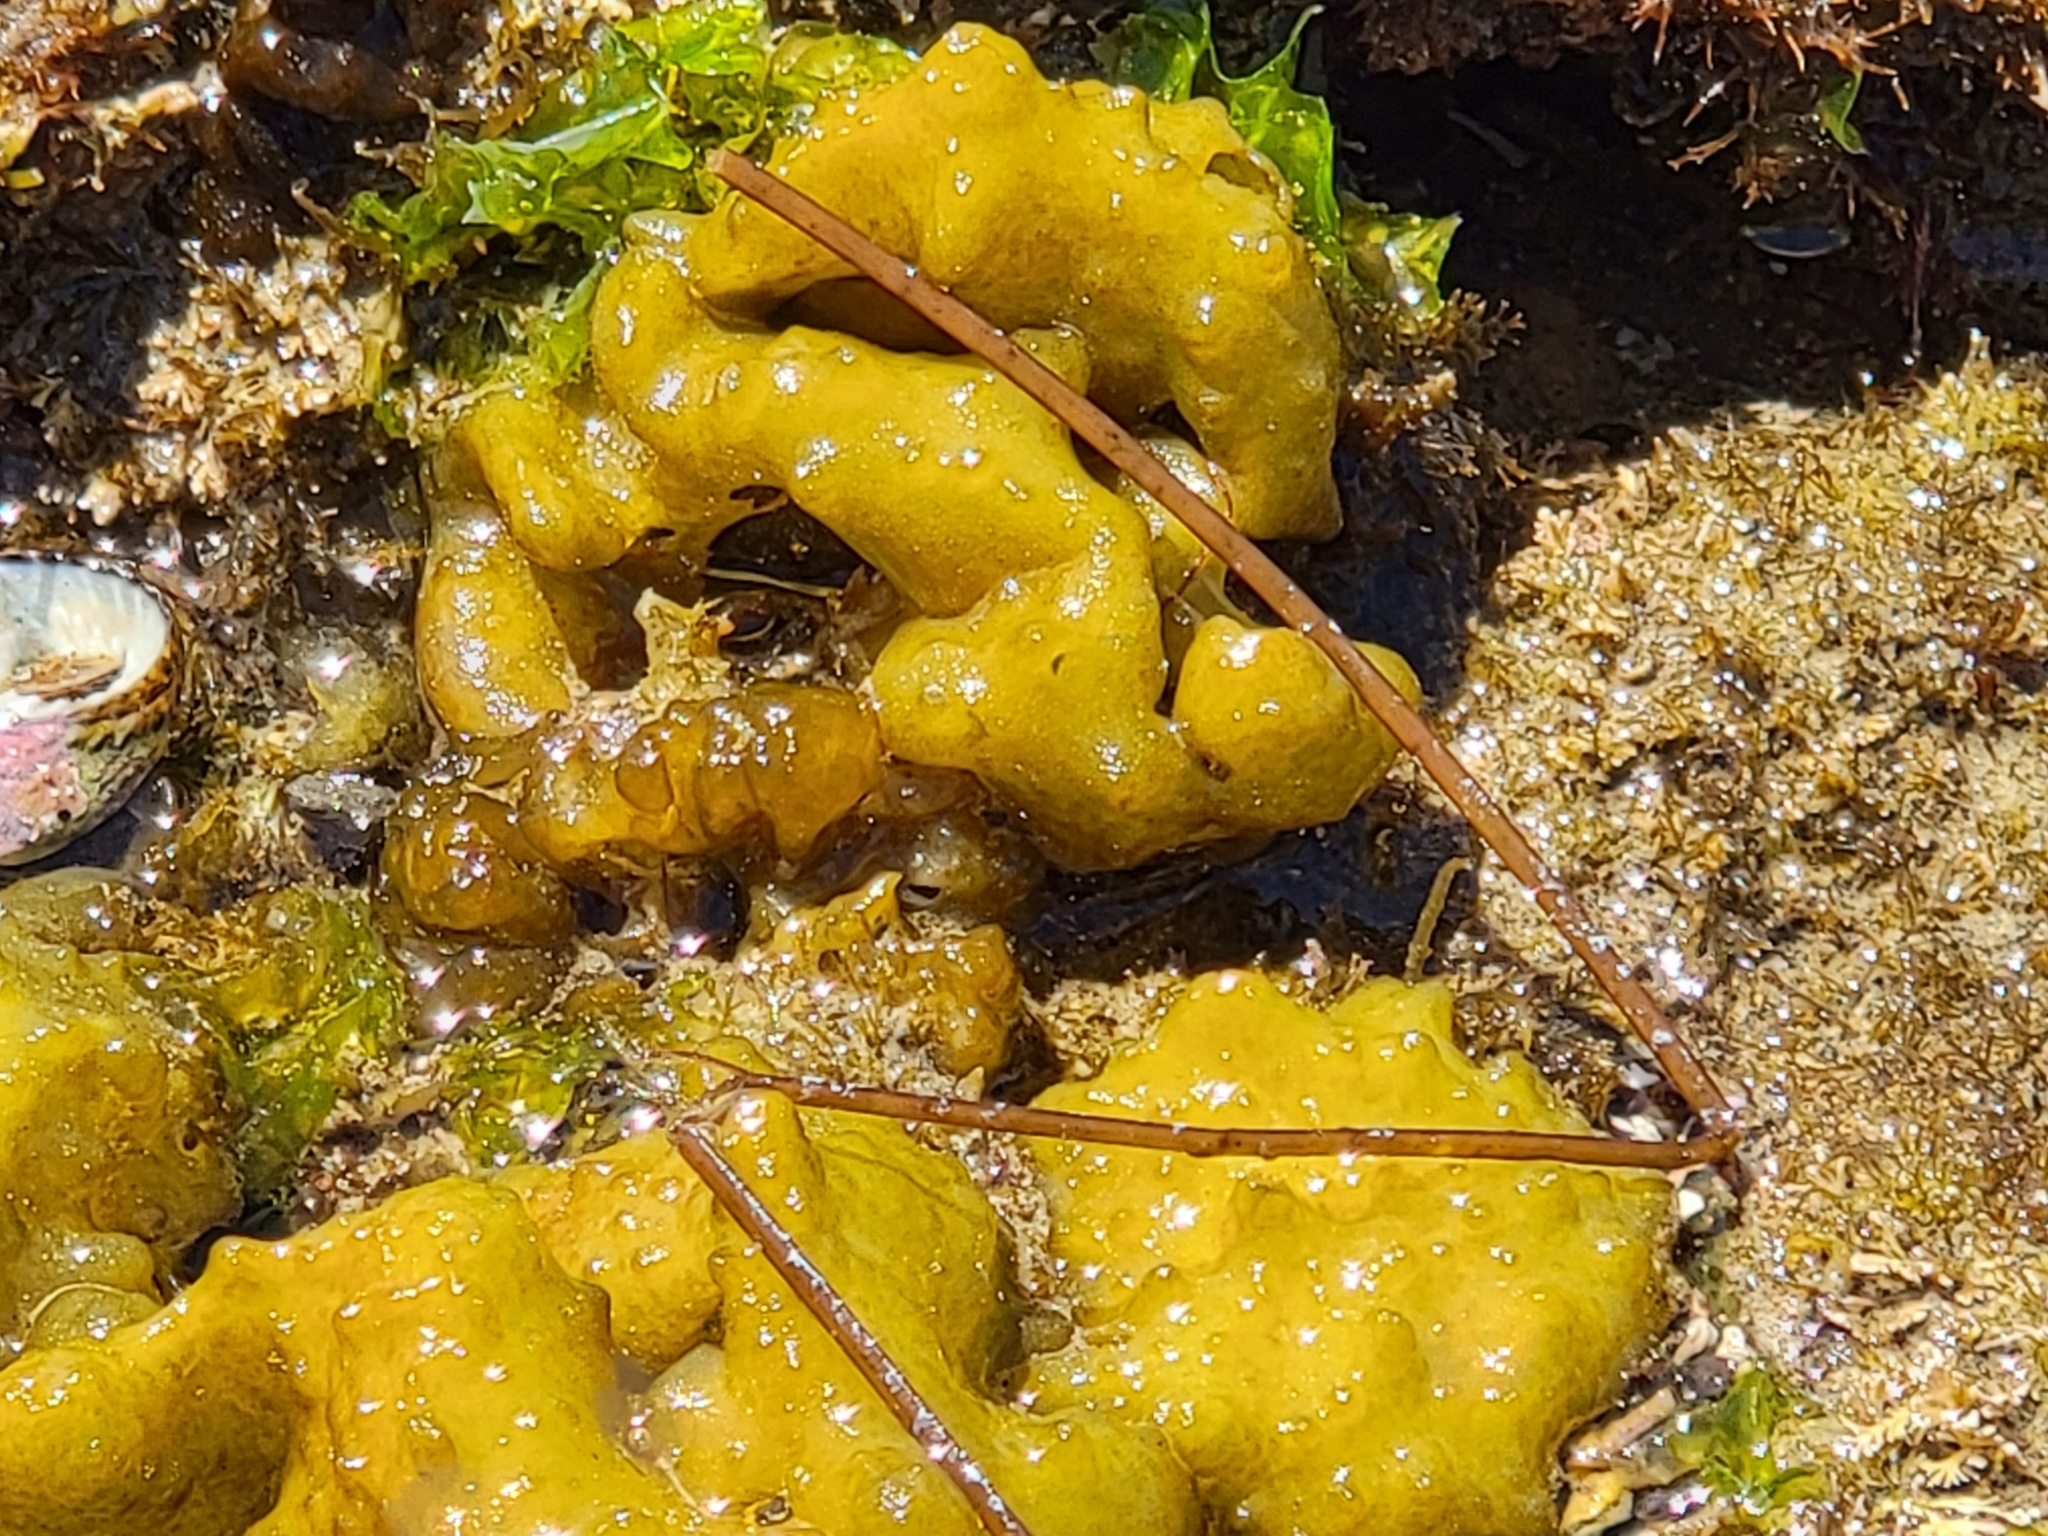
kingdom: Chromista
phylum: Ochrophyta
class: Phaeophyceae
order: Scytosiphonales
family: Scytosiphonaceae
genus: Colpomenia
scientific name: Colpomenia
